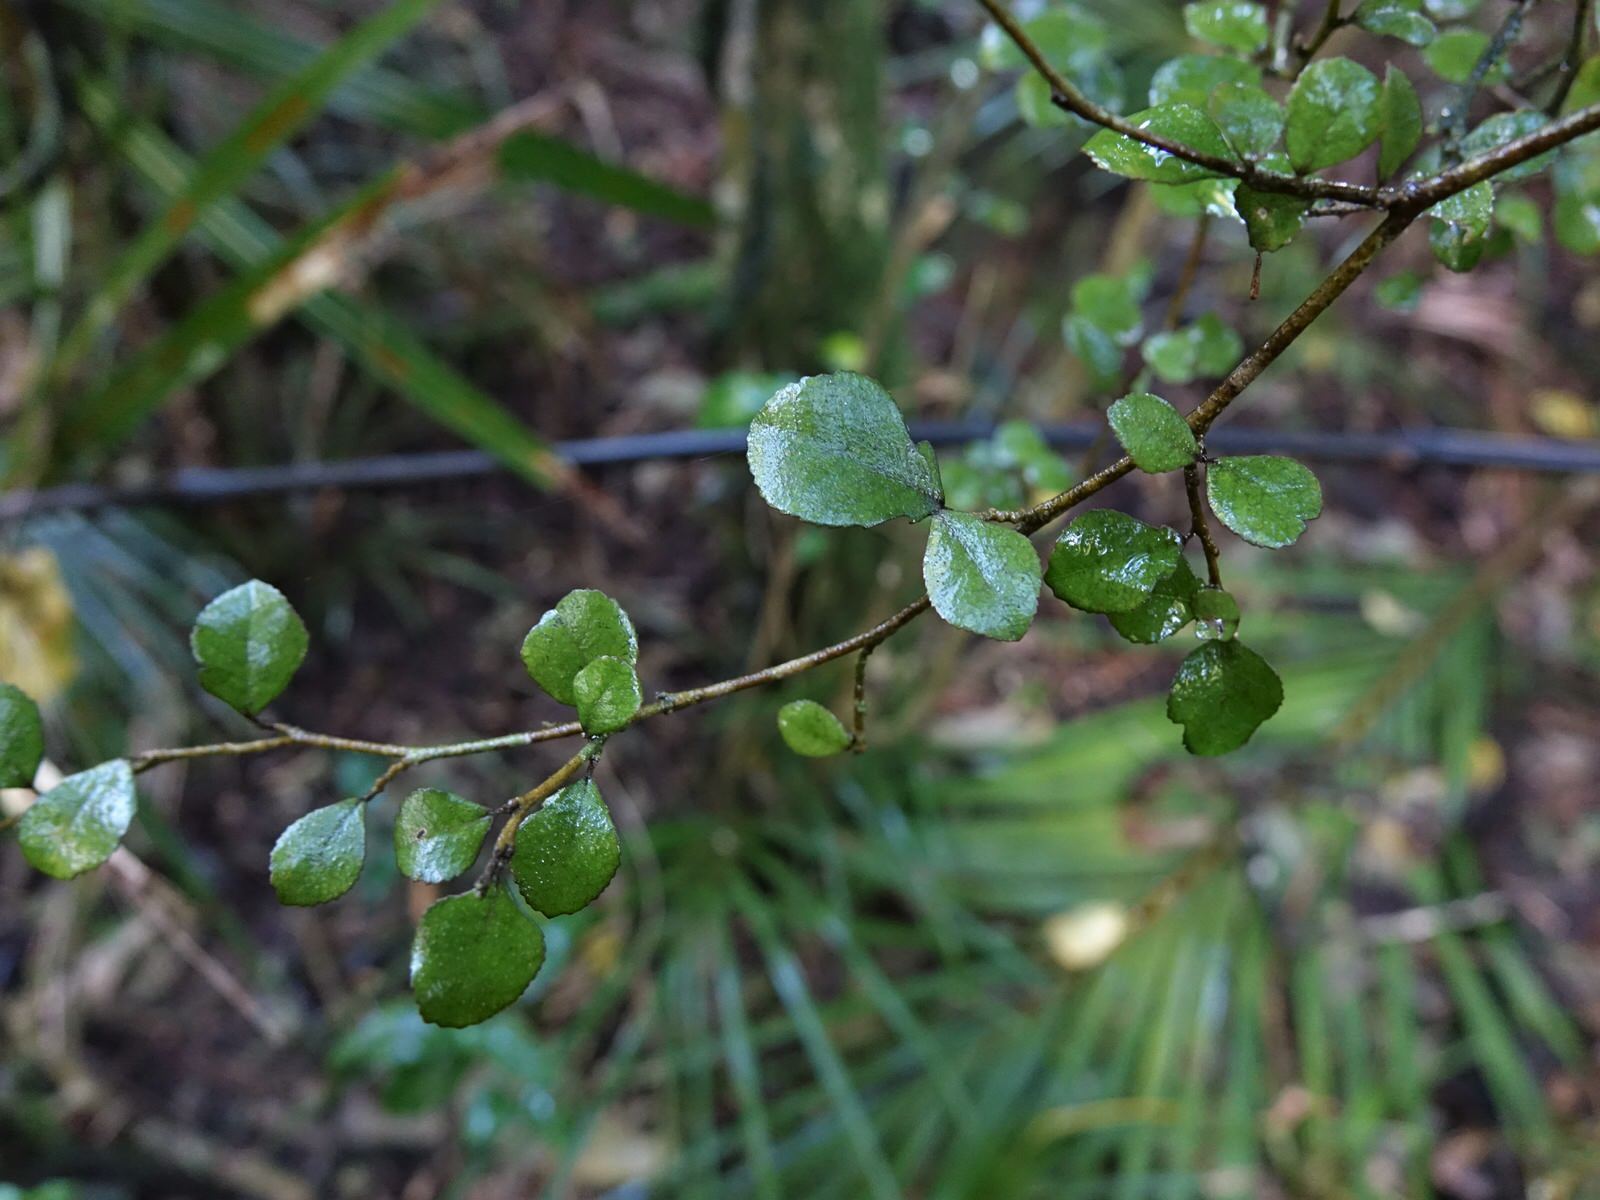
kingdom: Plantae
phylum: Tracheophyta
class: Magnoliopsida
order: Rosales
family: Moraceae
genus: Paratrophis
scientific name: Paratrophis microphylla
